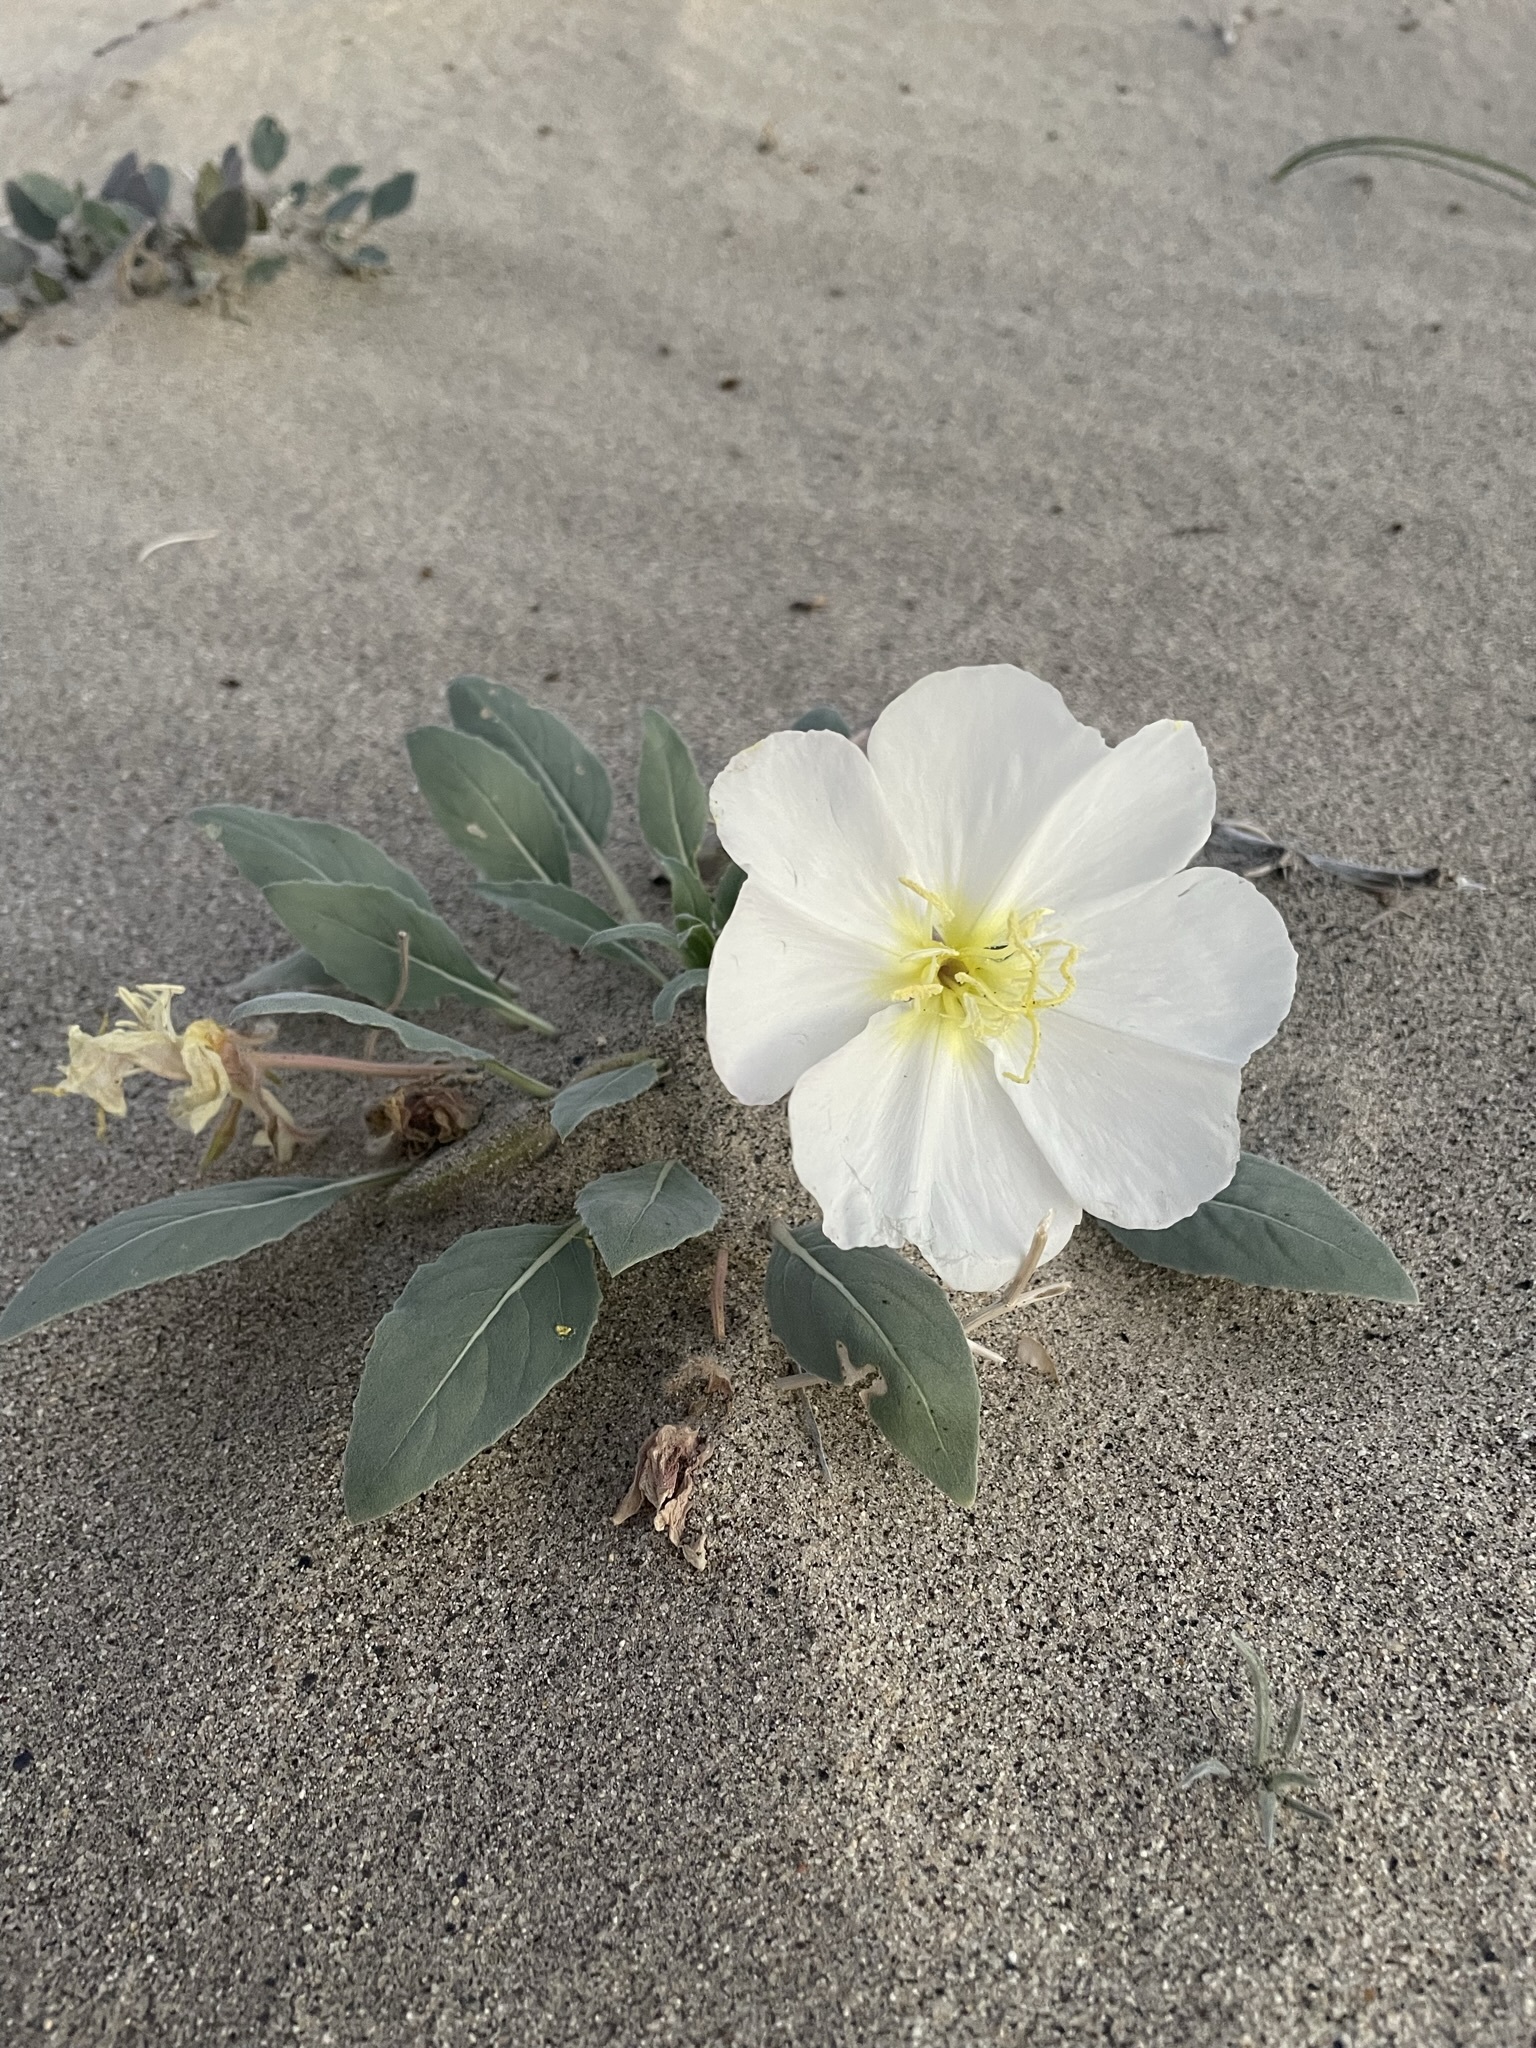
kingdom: Plantae
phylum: Tracheophyta
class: Magnoliopsida
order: Myrtales
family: Onagraceae
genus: Oenothera
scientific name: Oenothera deltoides
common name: Basket evening-primrose
